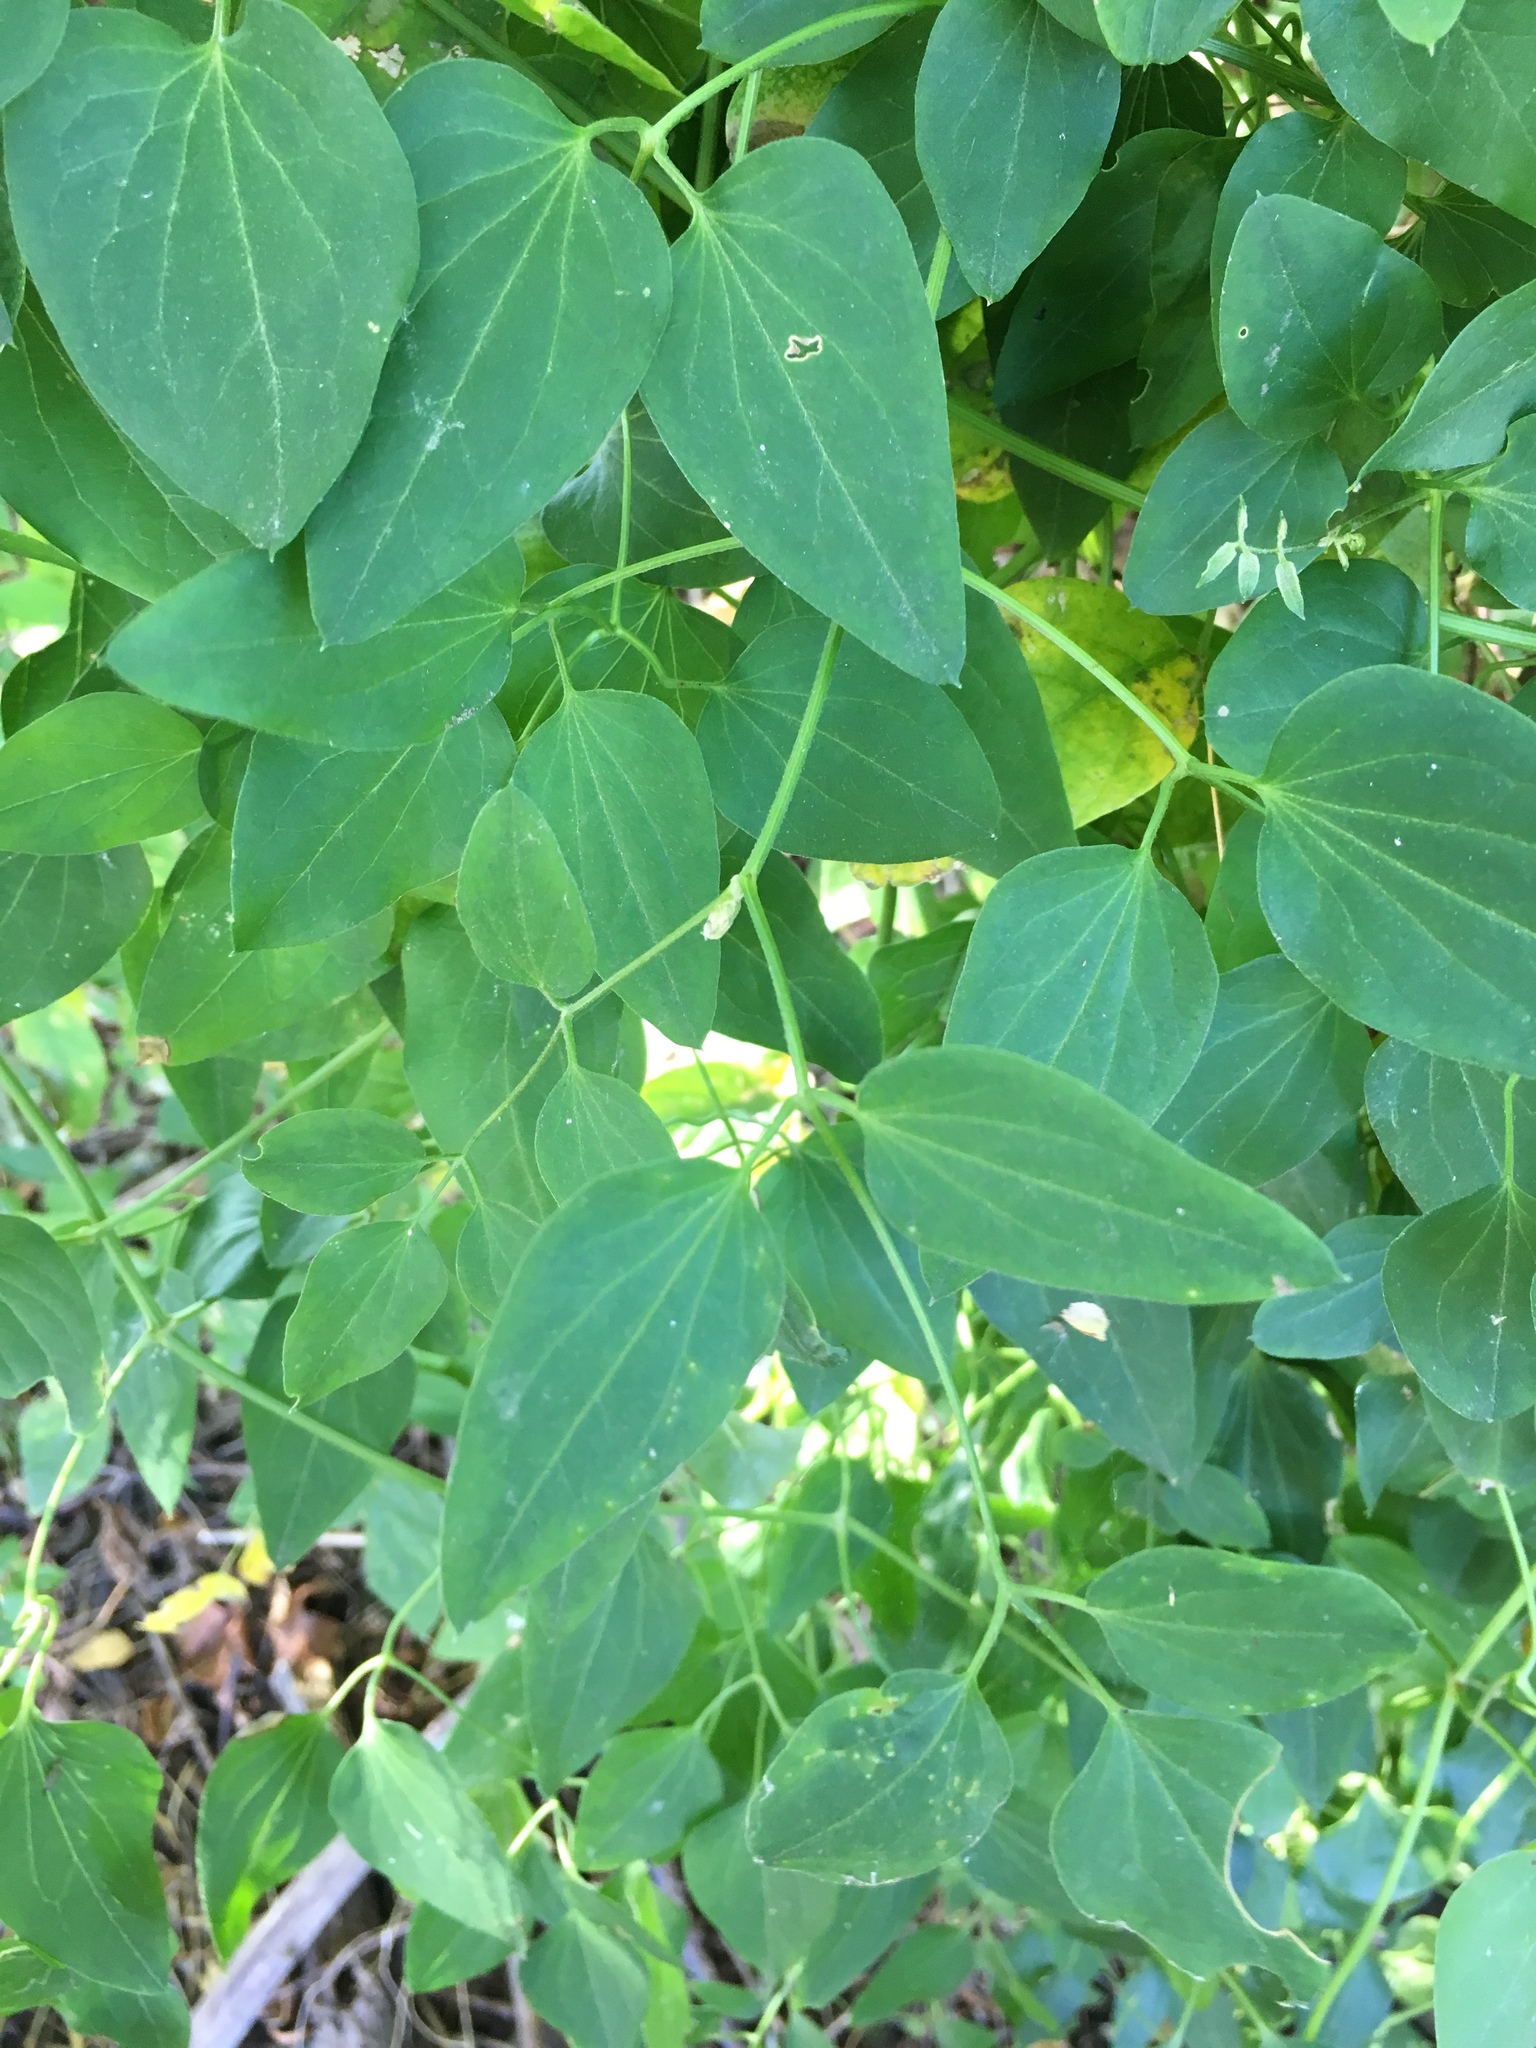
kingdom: Plantae
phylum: Tracheophyta
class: Magnoliopsida
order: Ranunculales
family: Ranunculaceae
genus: Clematis
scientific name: Clematis terniflora
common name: Sweet autumn clematis
